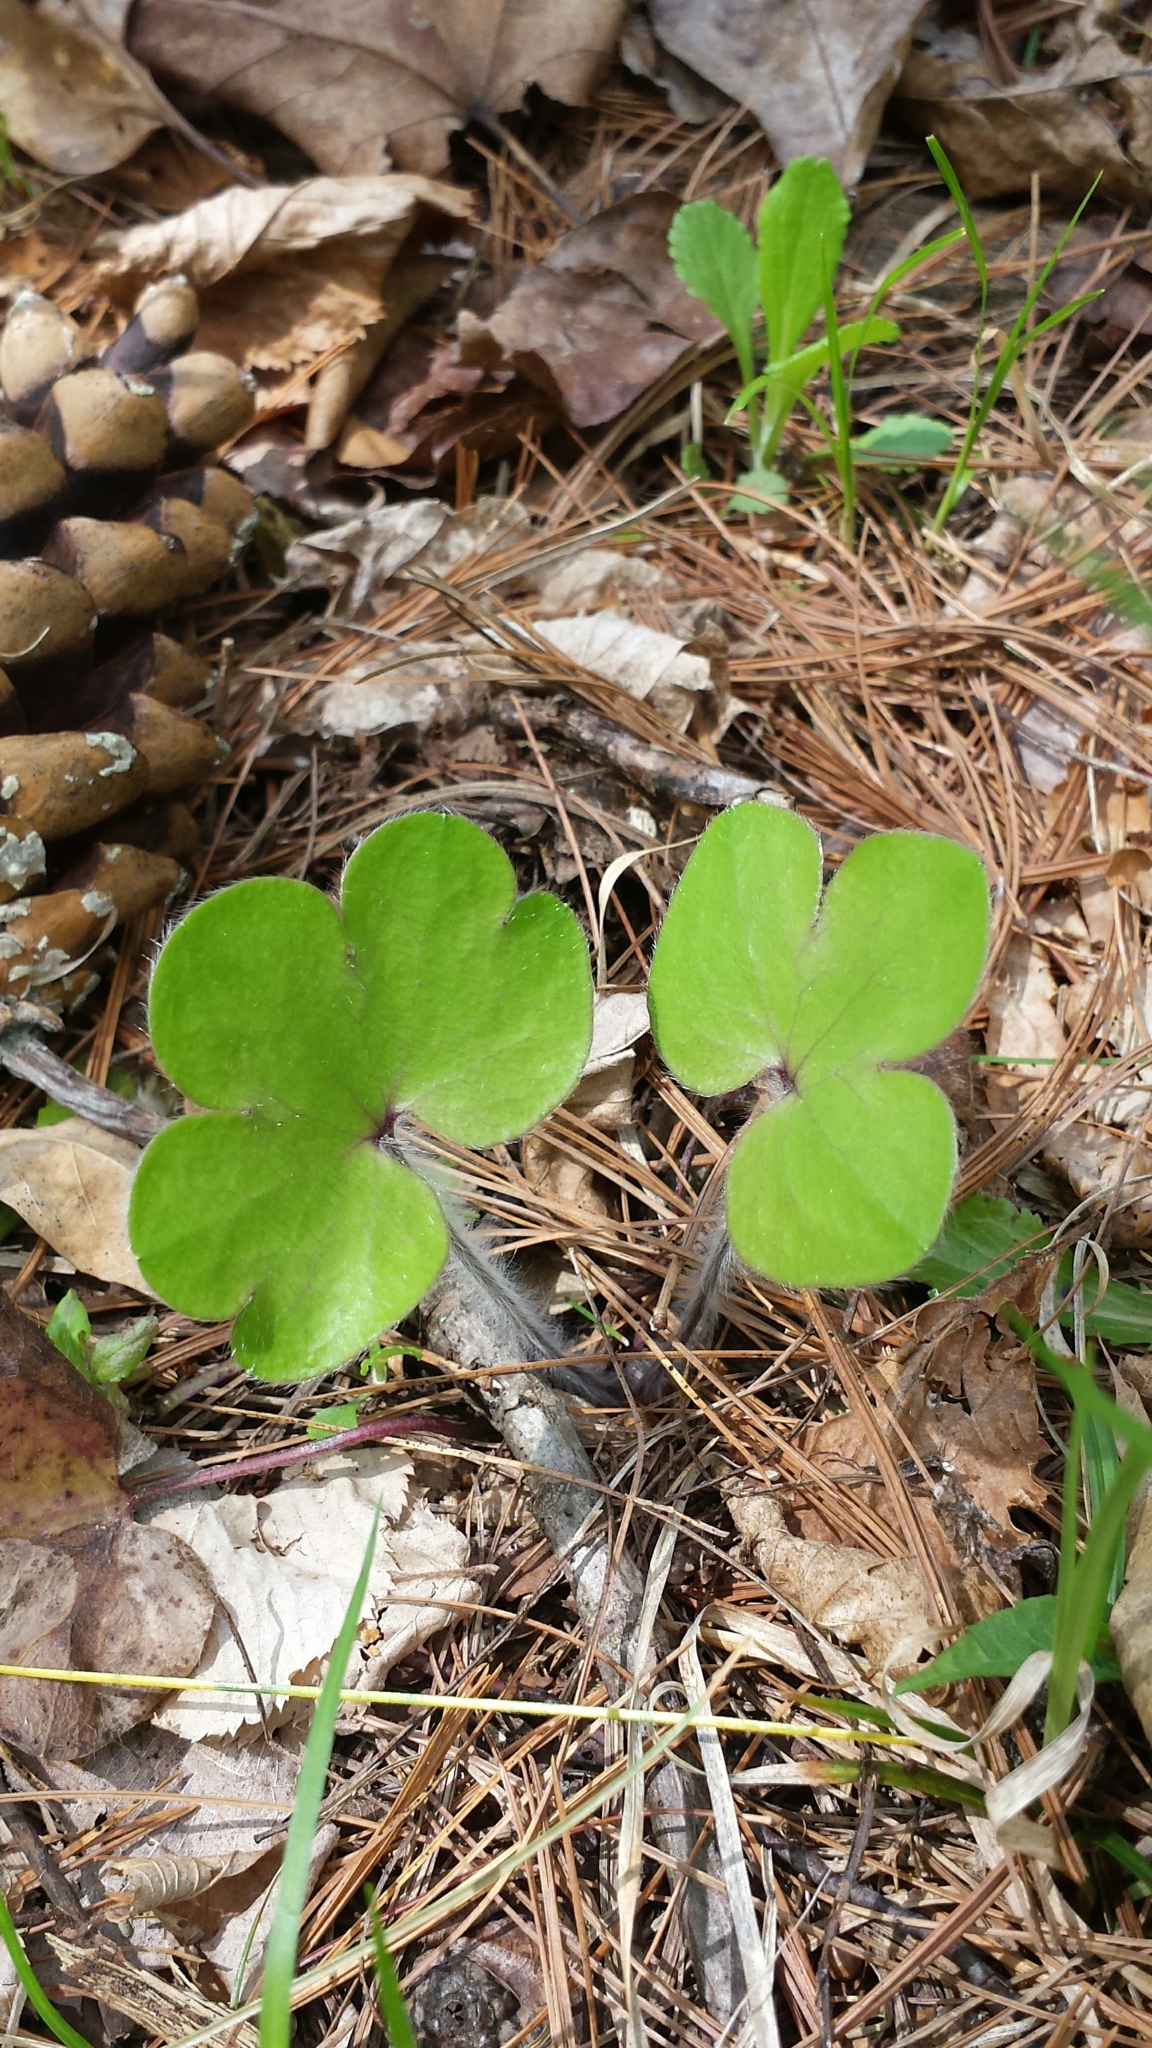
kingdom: Plantae
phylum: Tracheophyta
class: Magnoliopsida
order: Ranunculales
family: Ranunculaceae
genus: Hepatica
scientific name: Hepatica americana
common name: American hepatica
